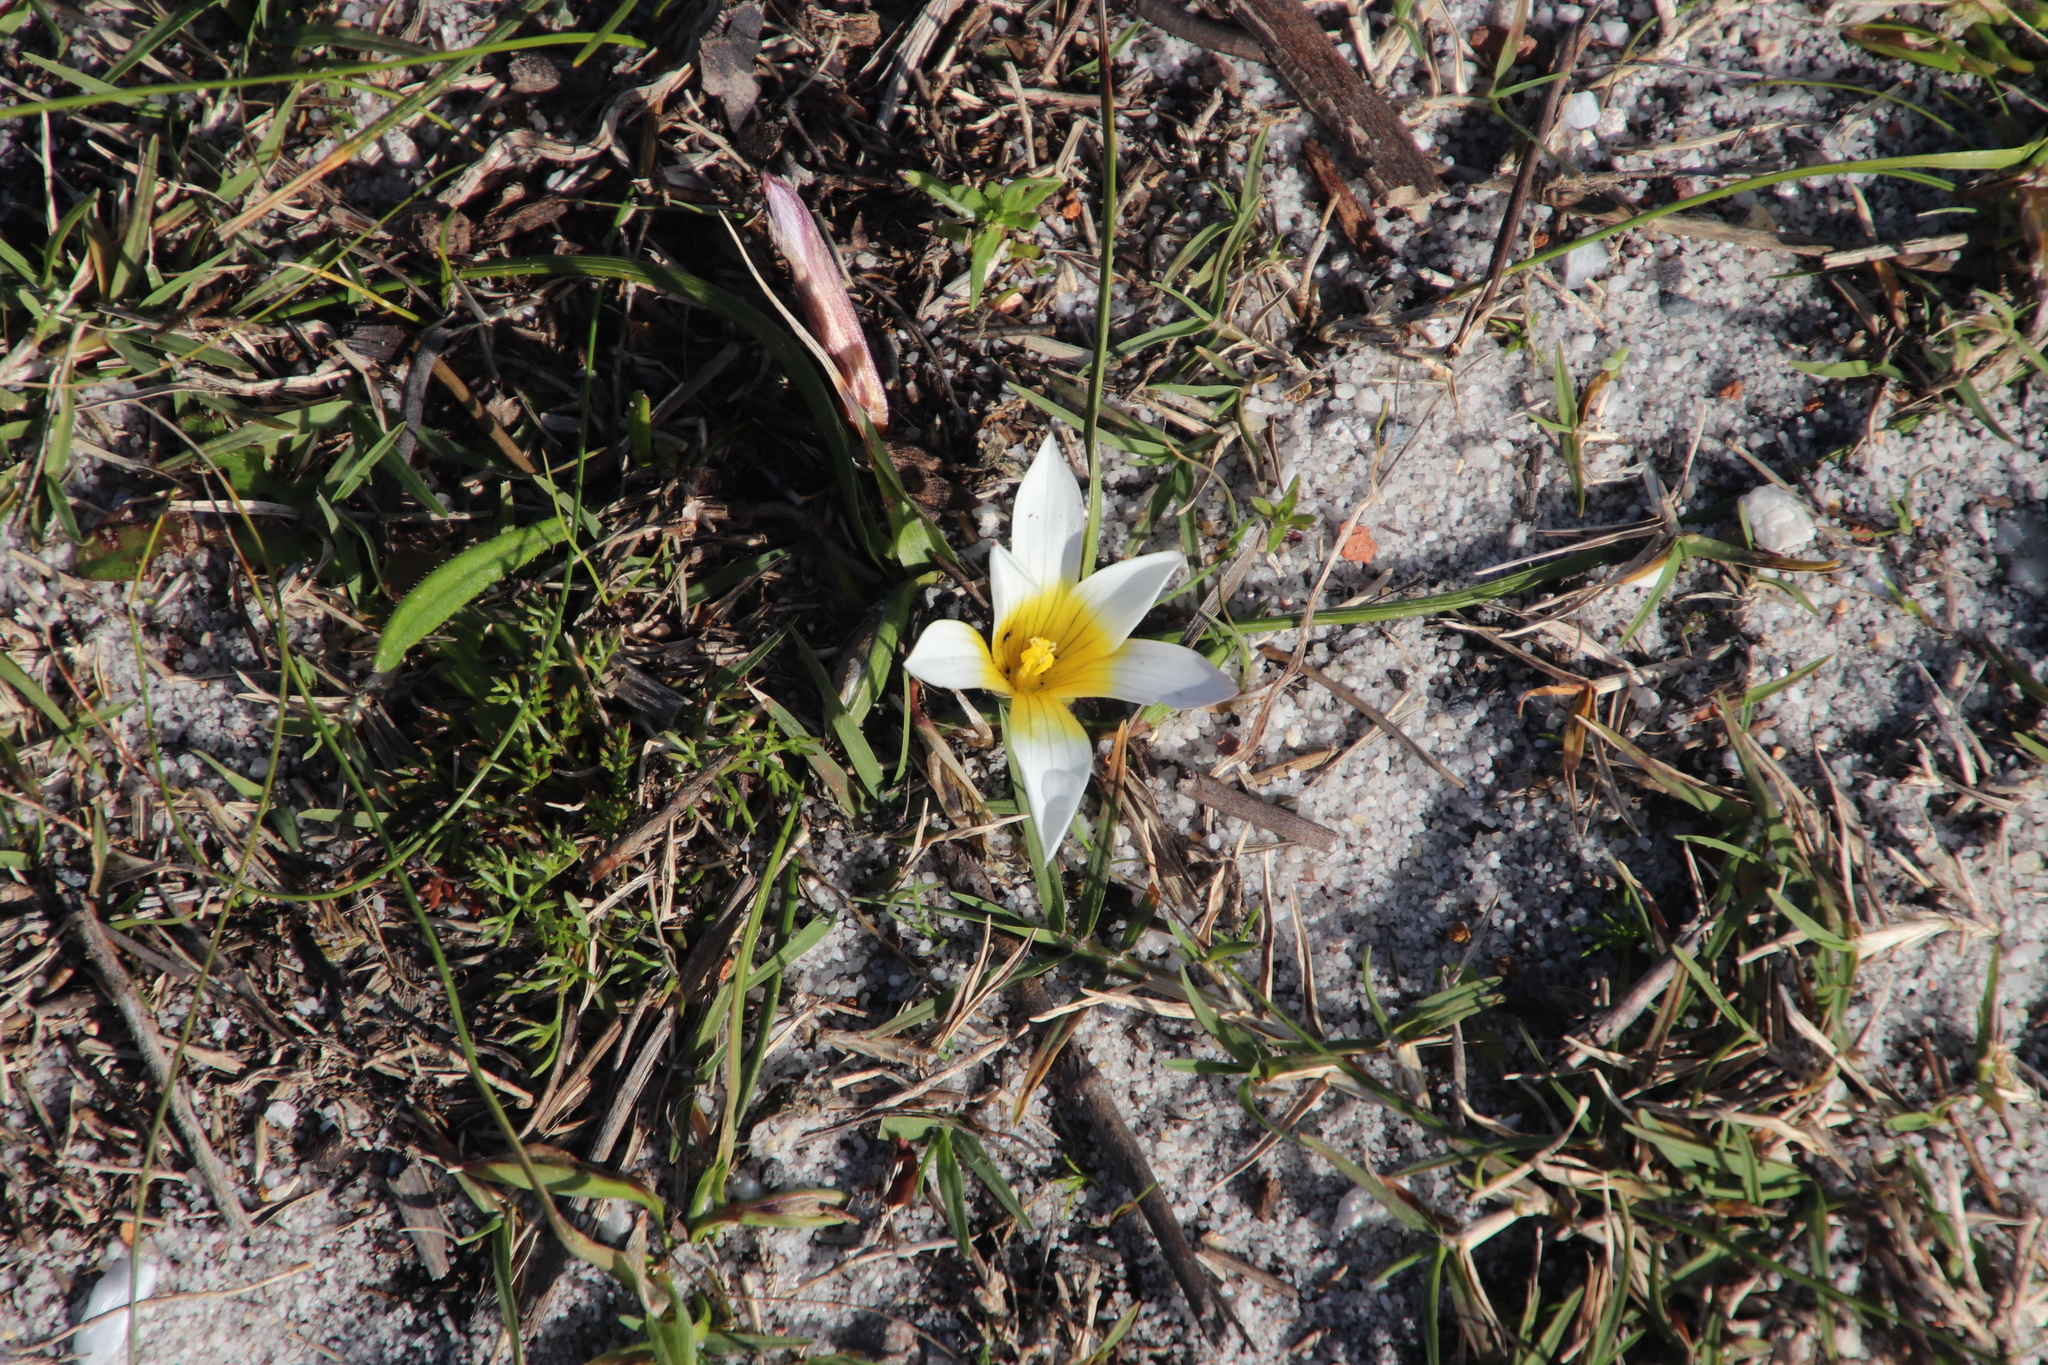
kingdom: Plantae
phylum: Tracheophyta
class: Liliopsida
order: Asparagales
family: Iridaceae
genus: Romulea
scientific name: Romulea flava
